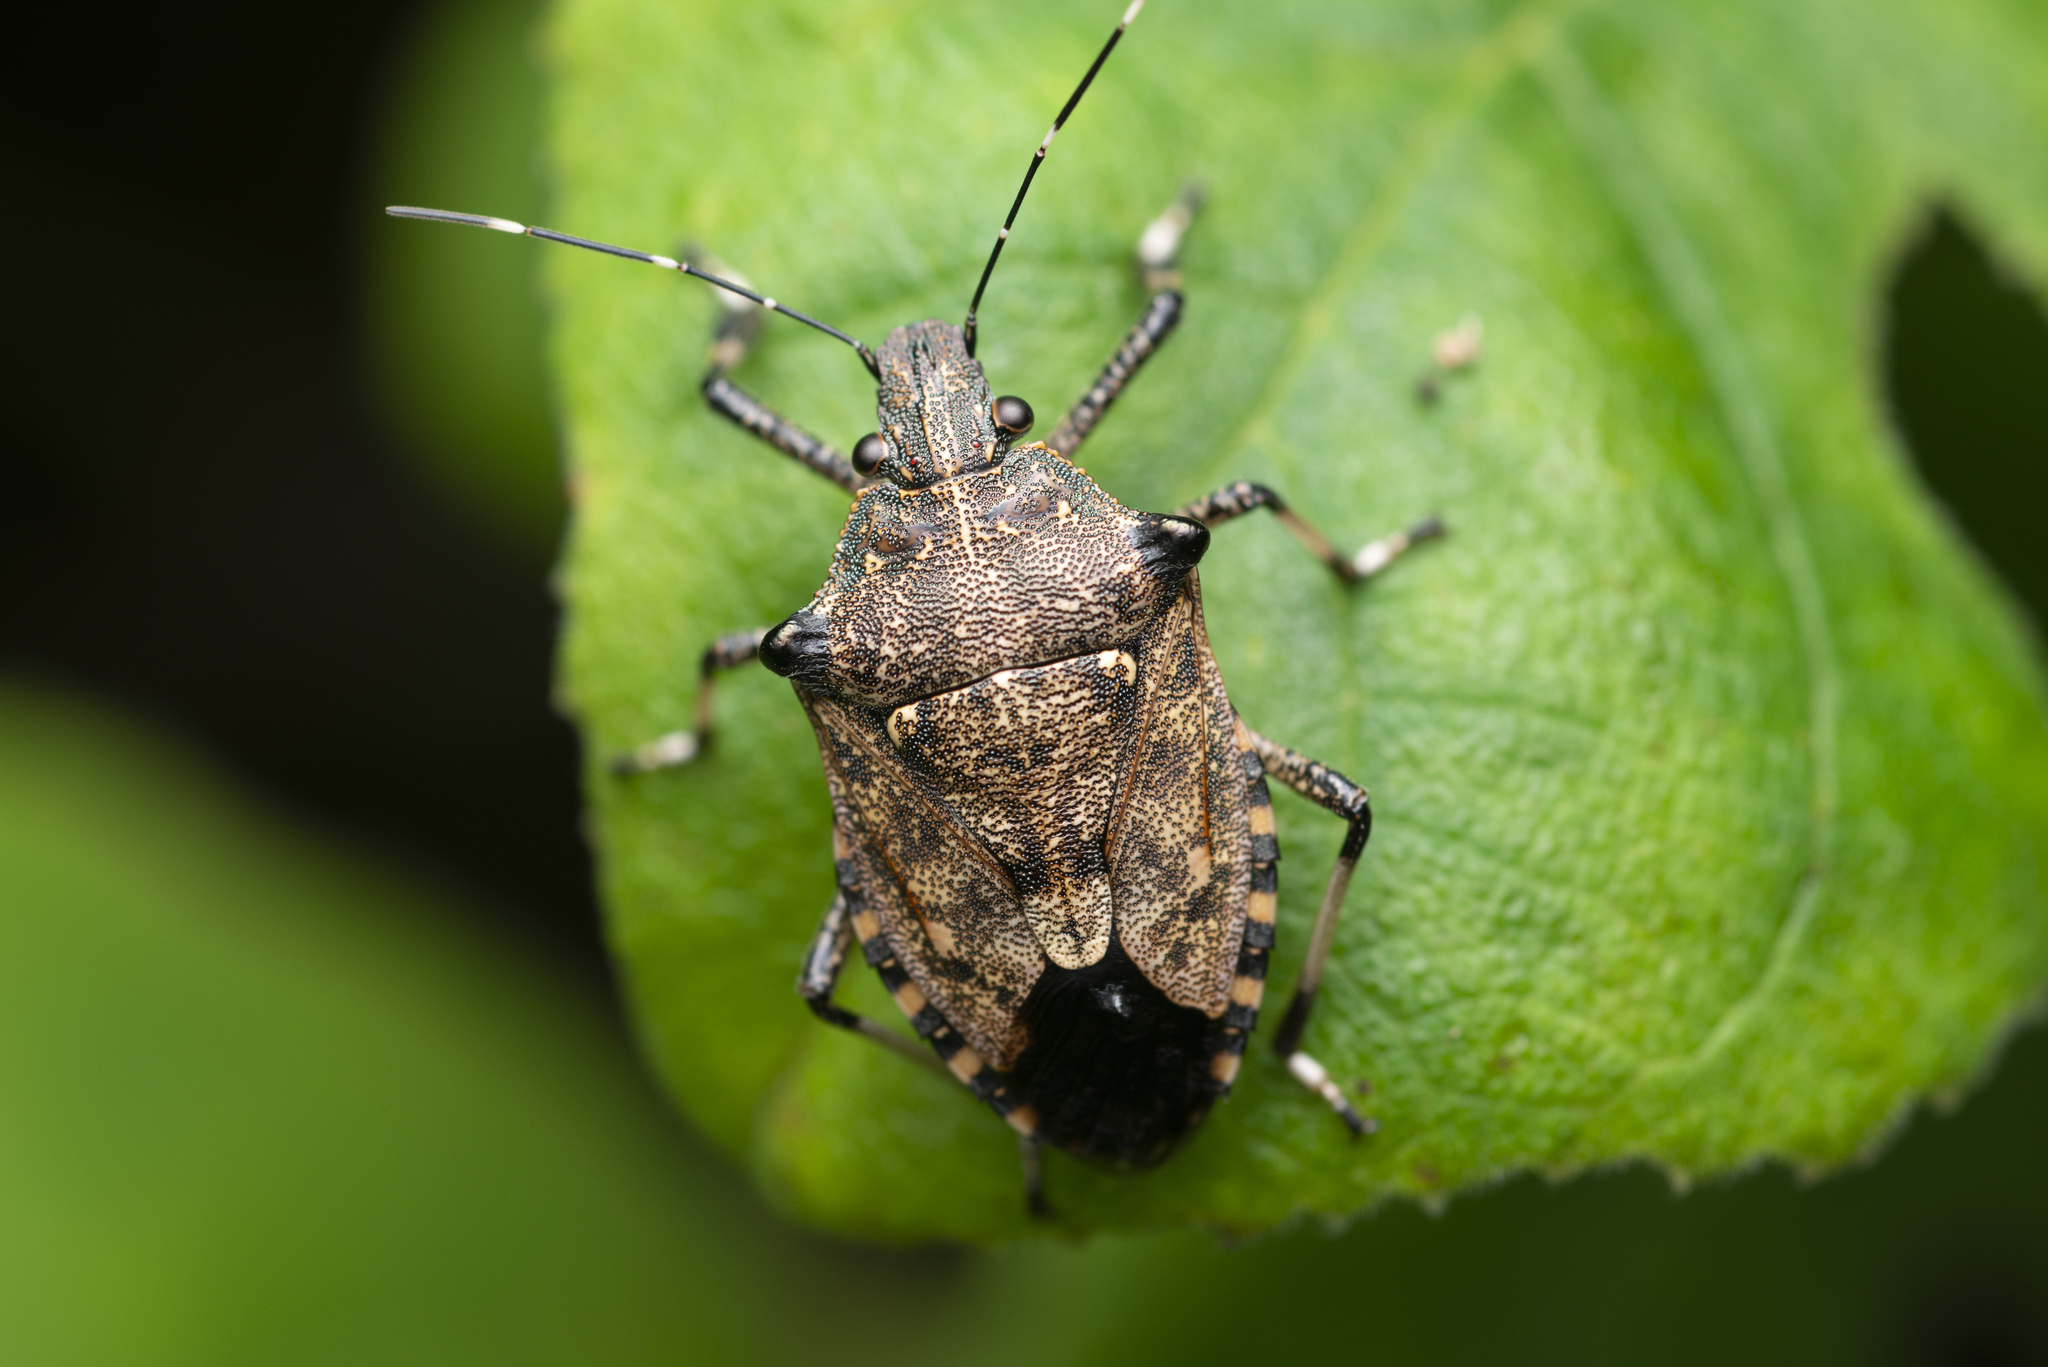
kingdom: Animalia
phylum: Arthropoda
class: Insecta
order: Hemiptera
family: Pentatomidae
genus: Dalpada
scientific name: Dalpada nodifera
